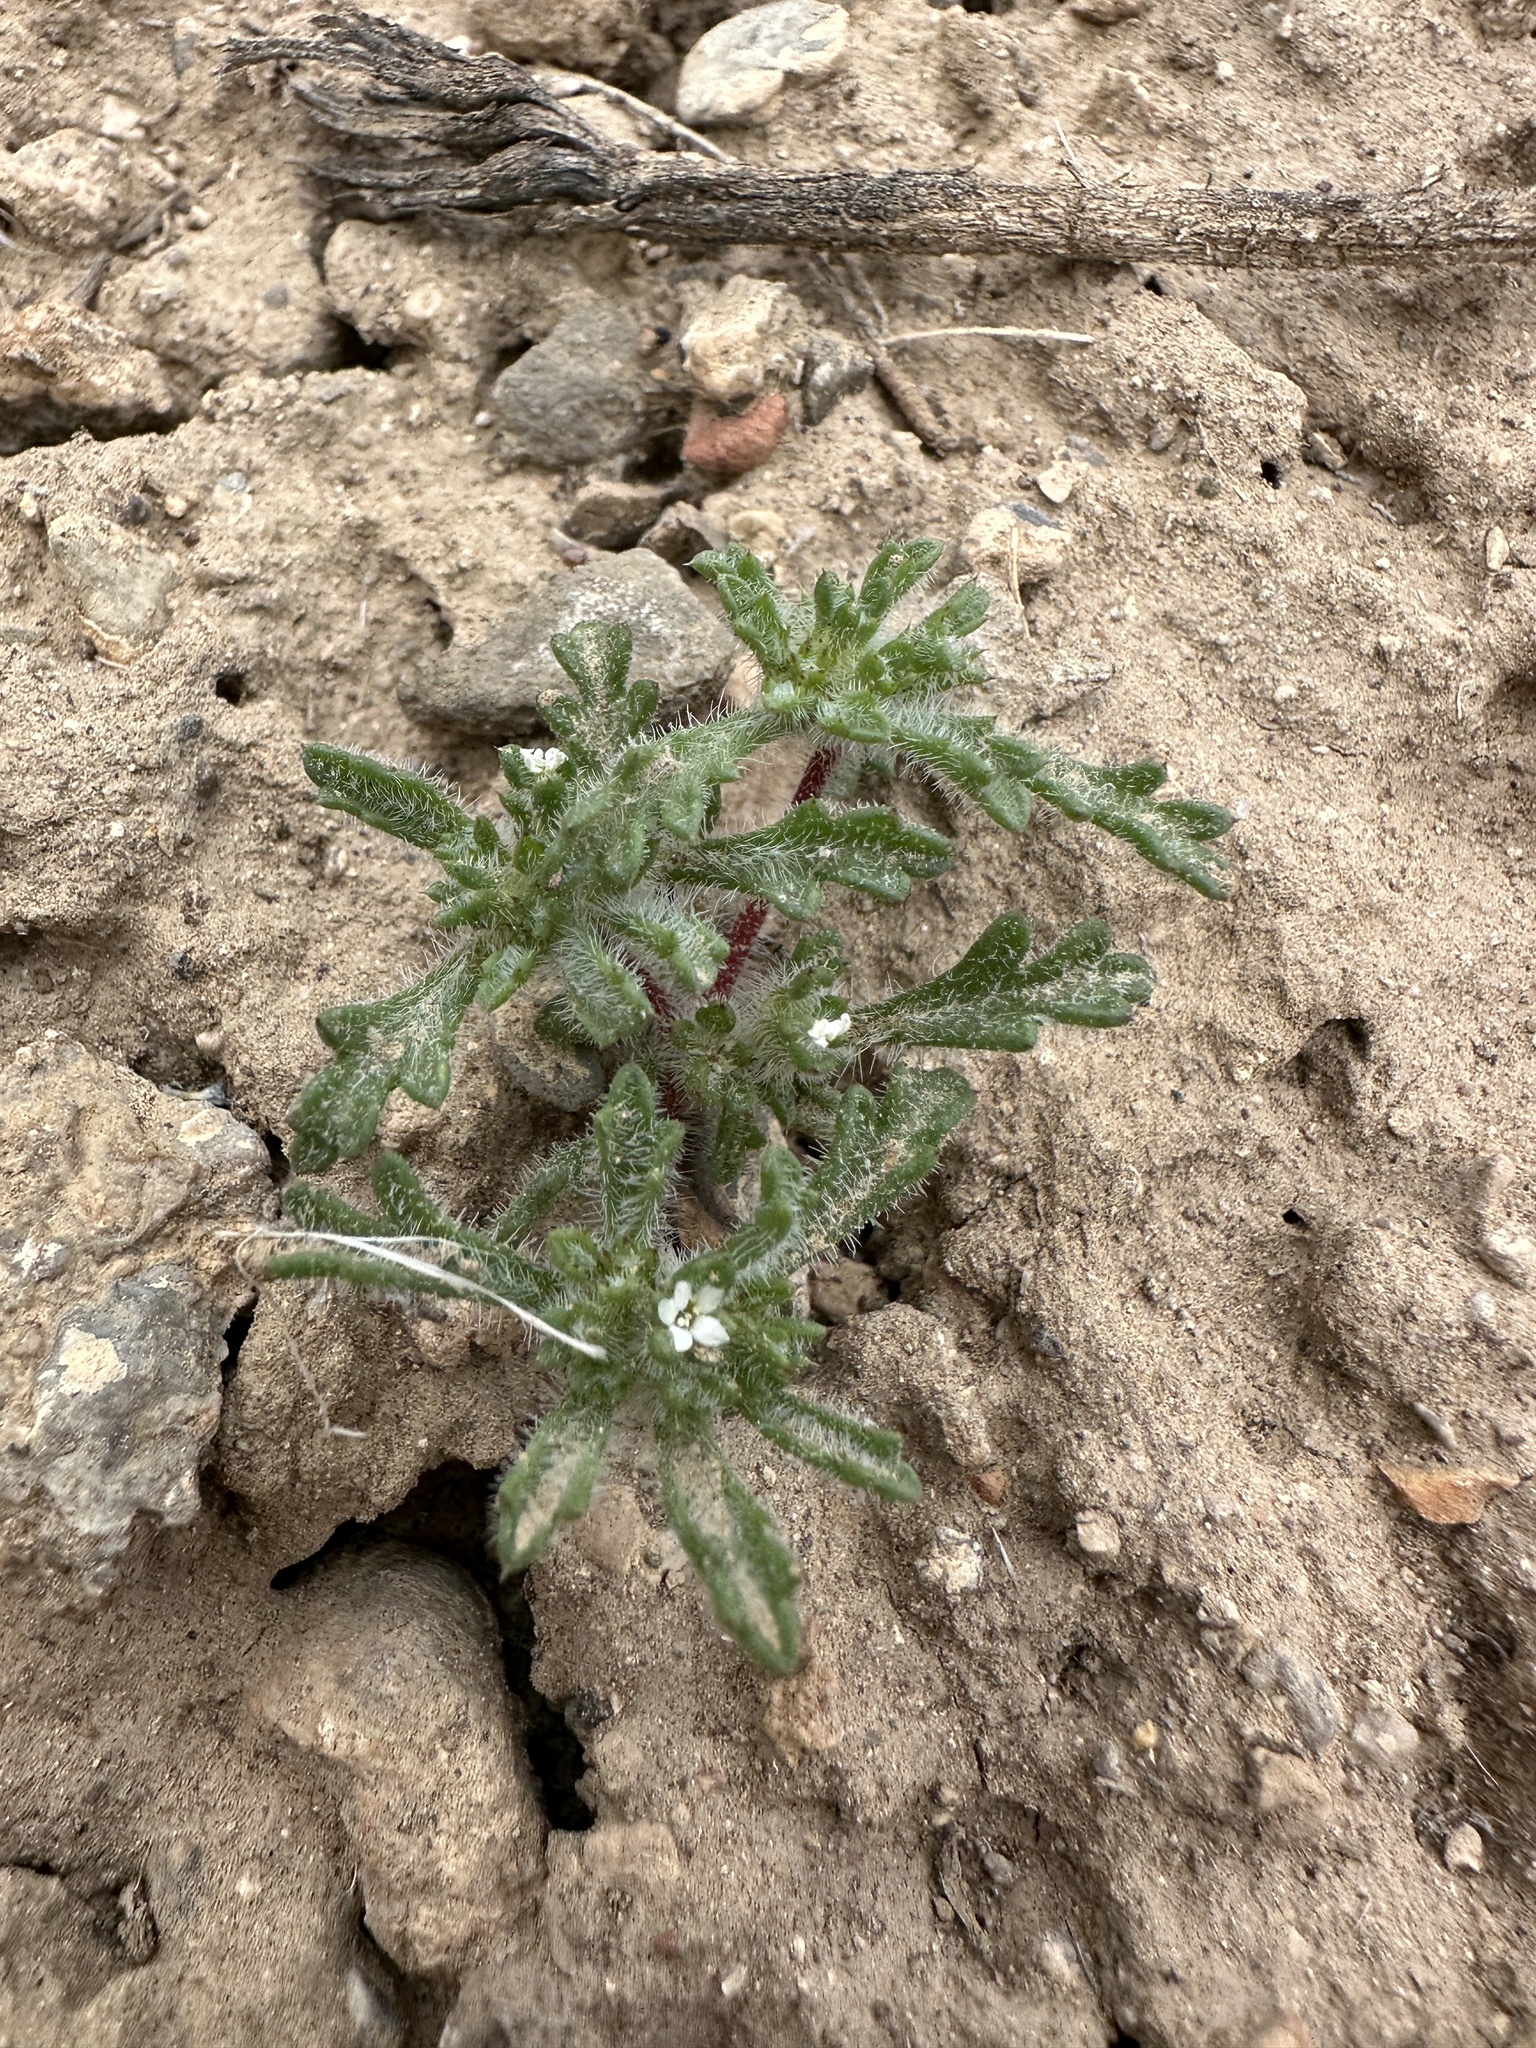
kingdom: Plantae
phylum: Tracheophyta
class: Magnoliopsida
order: Ericales
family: Polemoniaceae
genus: Ipomopsis
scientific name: Ipomopsis polycladon
